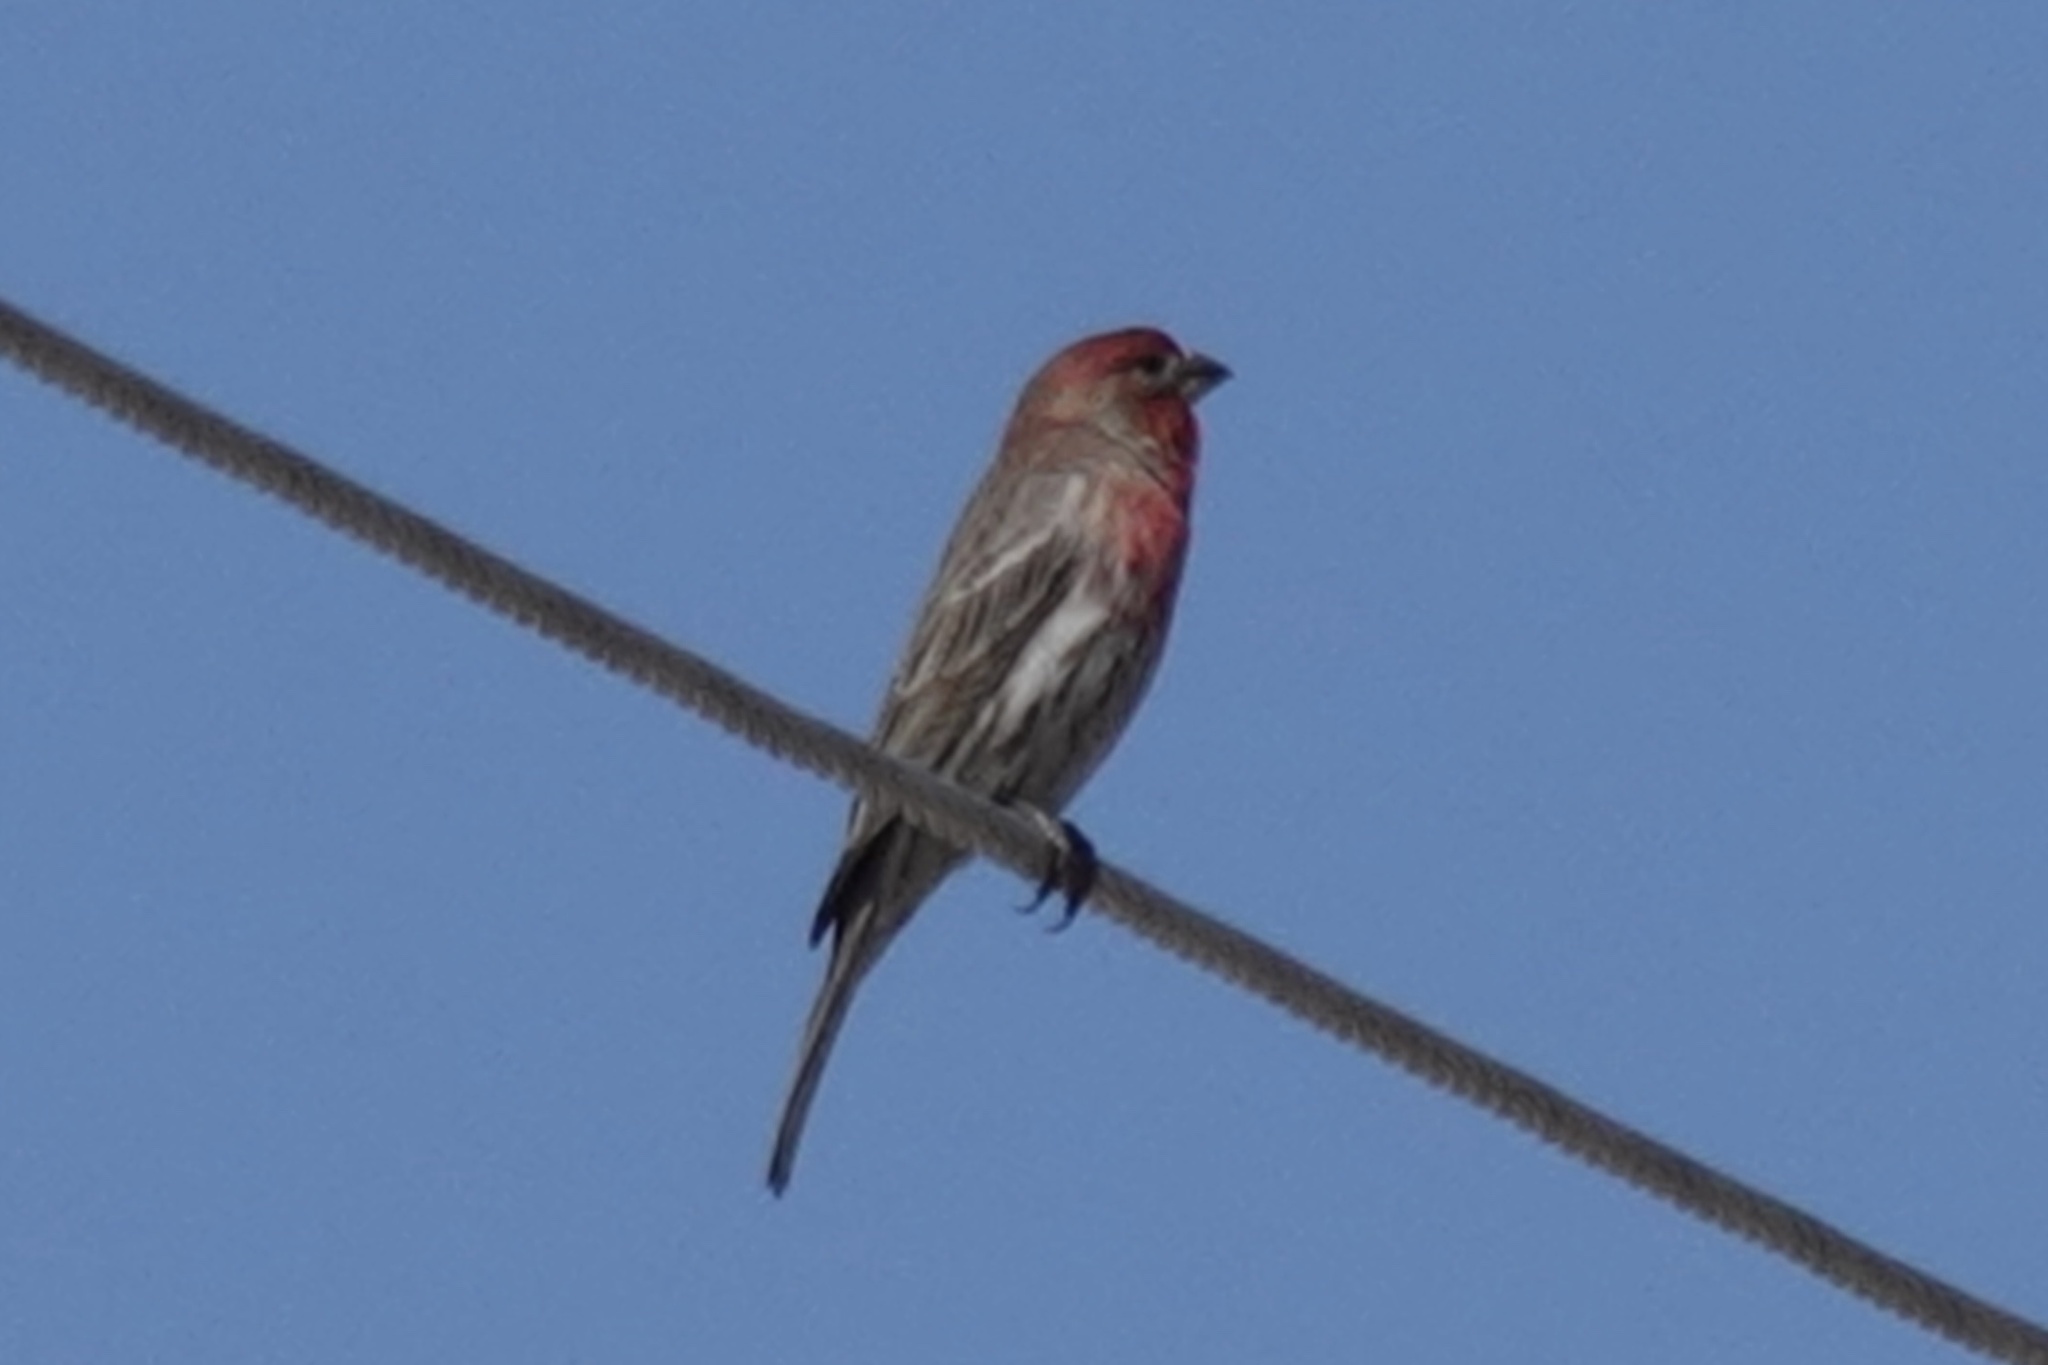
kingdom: Animalia
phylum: Chordata
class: Aves
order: Passeriformes
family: Fringillidae
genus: Haemorhous
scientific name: Haemorhous mexicanus
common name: House finch
